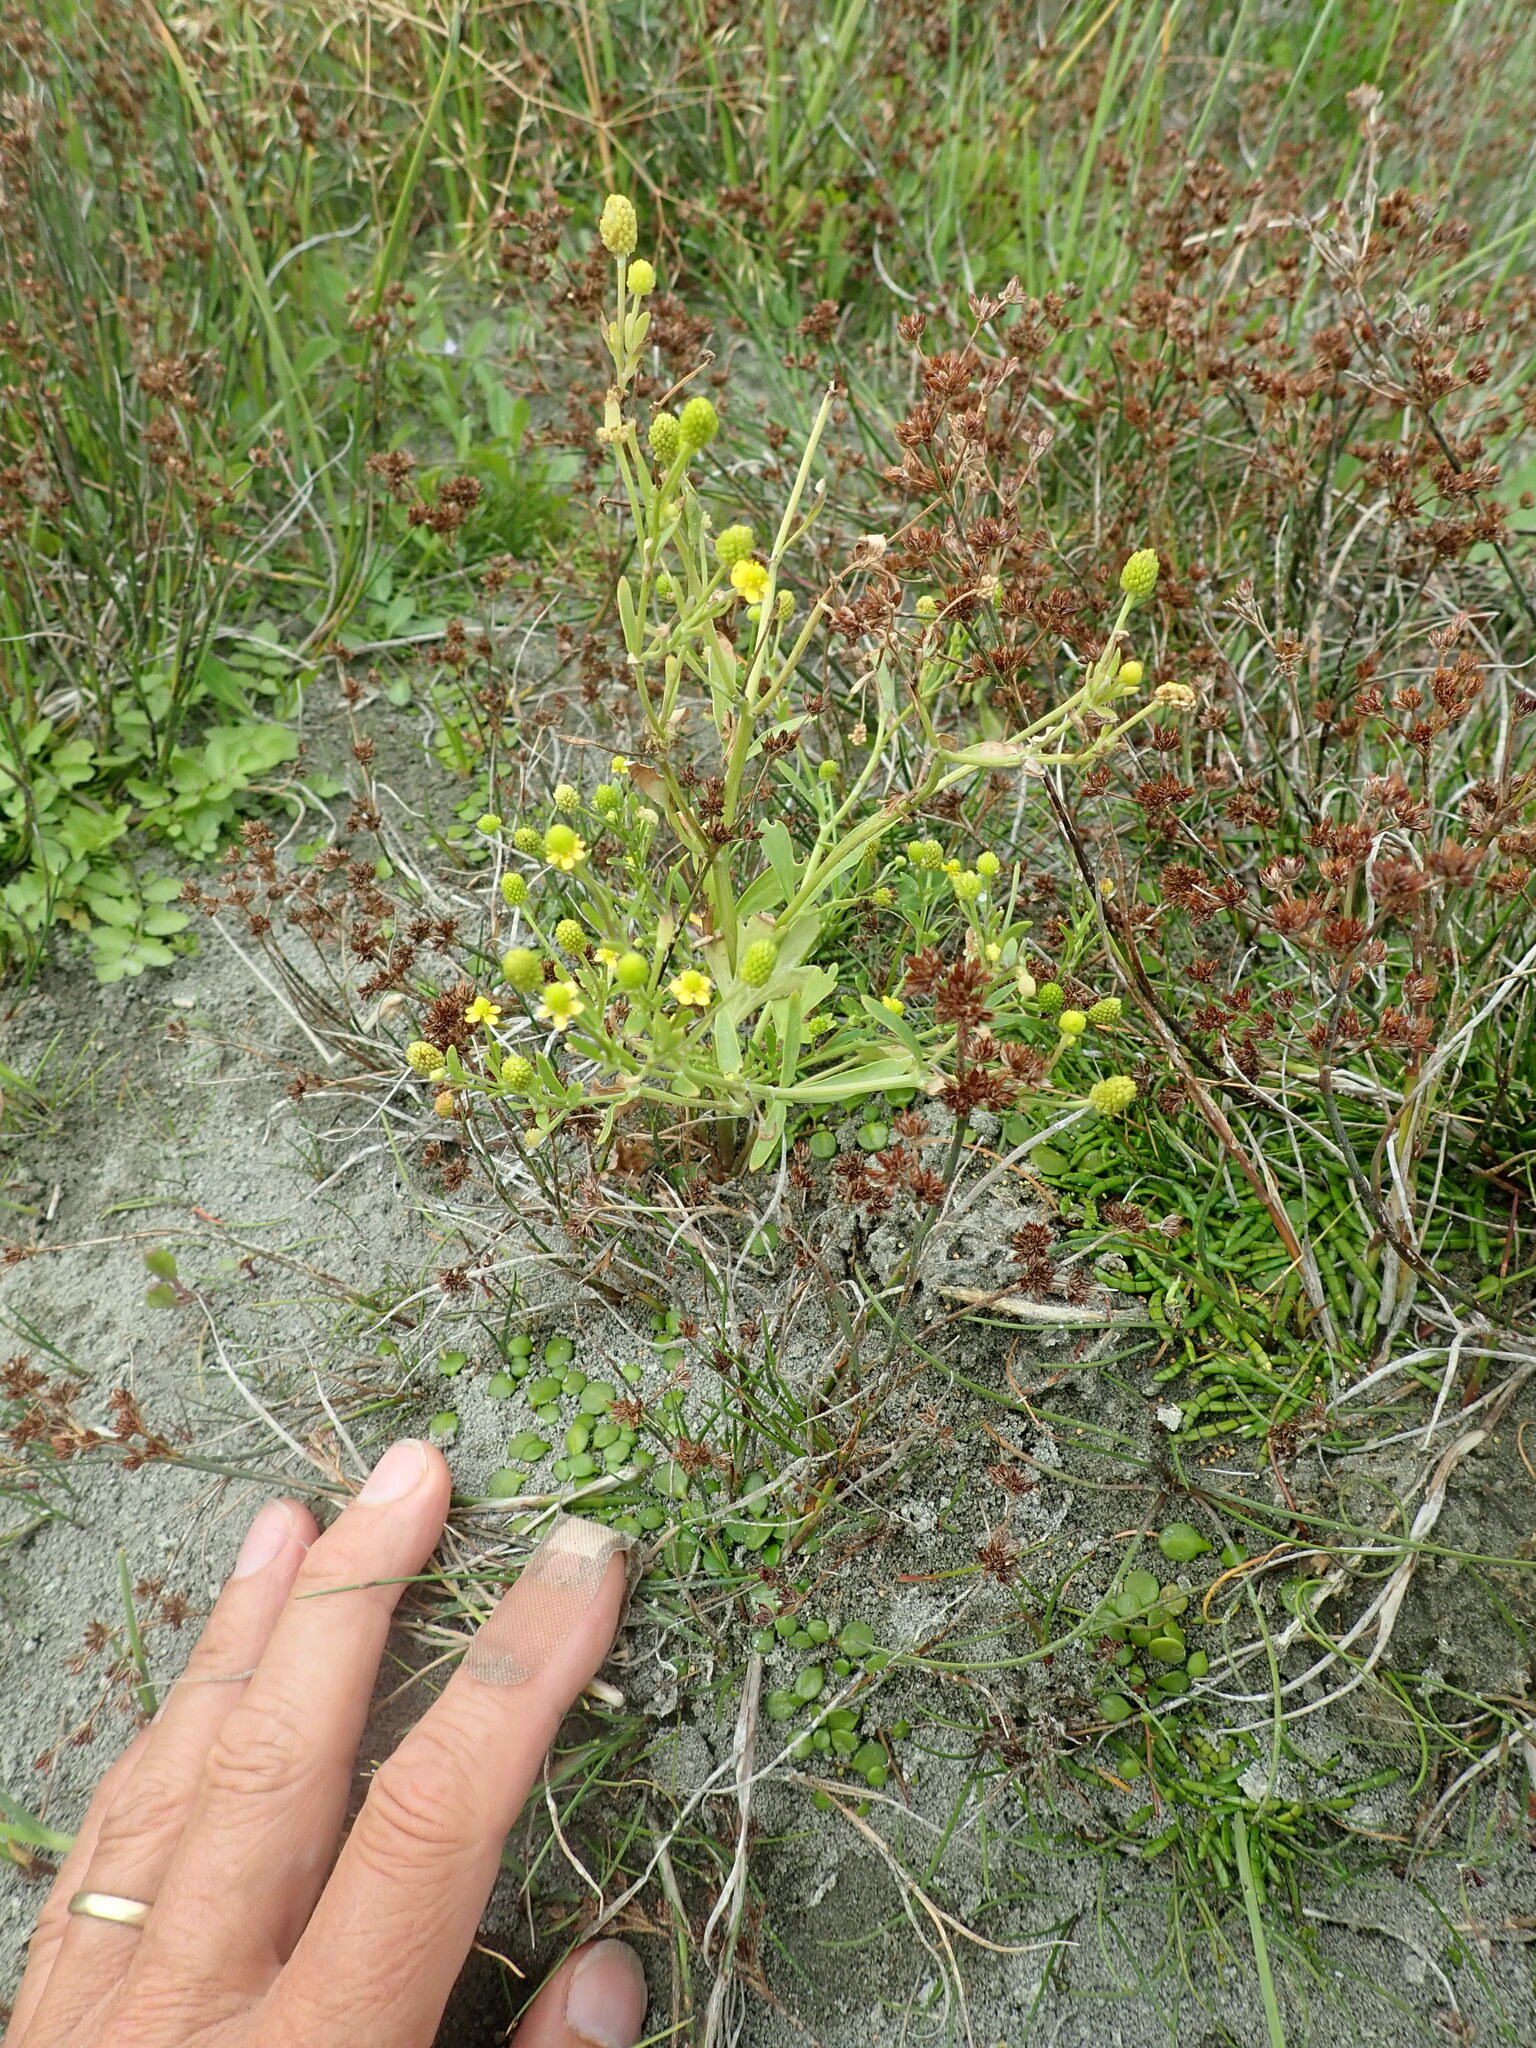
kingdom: Plantae
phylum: Tracheophyta
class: Magnoliopsida
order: Ranunculales
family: Ranunculaceae
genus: Ranunculus
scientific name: Ranunculus sceleratus
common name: Celery-leaved buttercup
